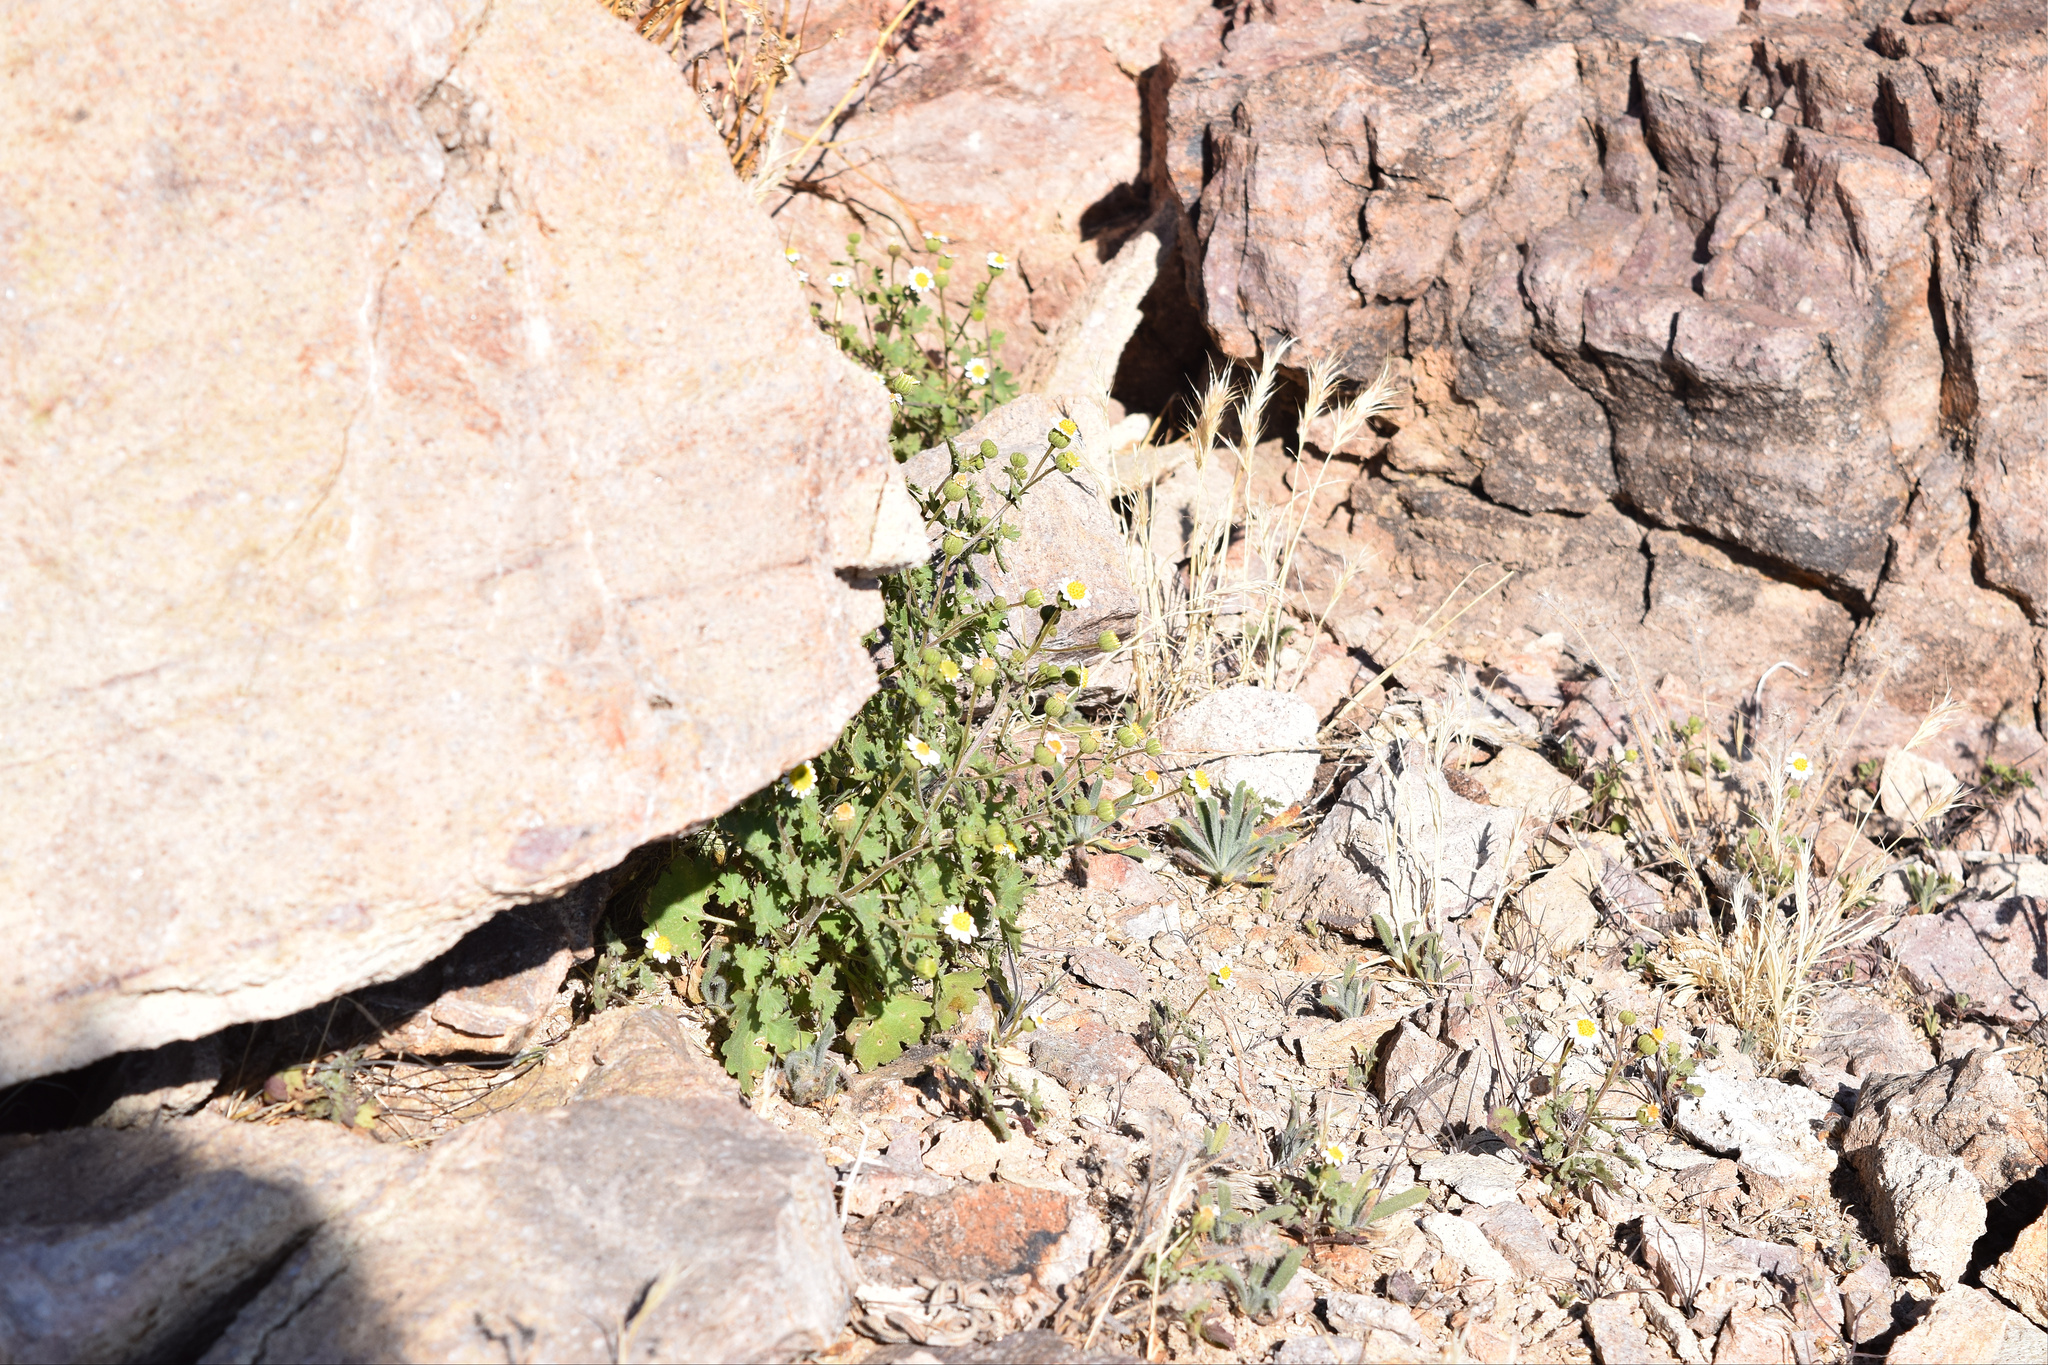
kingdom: Plantae
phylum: Tracheophyta
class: Magnoliopsida
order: Asterales
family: Asteraceae
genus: Laphamia
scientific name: Laphamia emoryi
